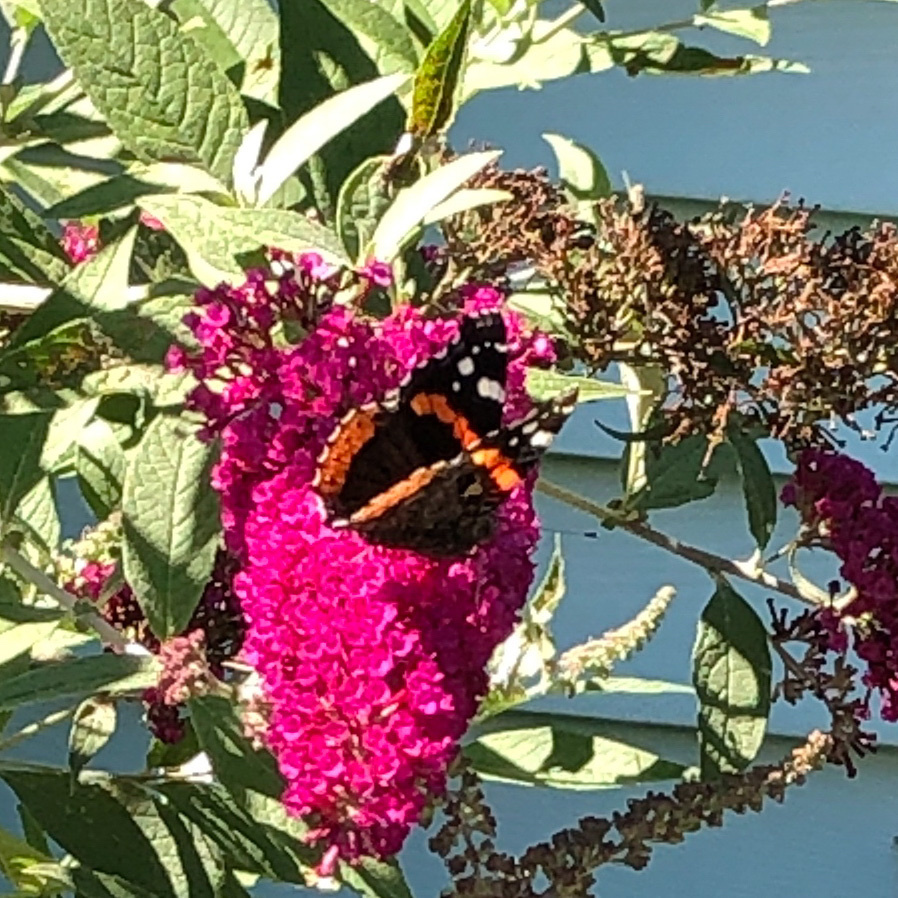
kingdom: Animalia
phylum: Arthropoda
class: Insecta
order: Lepidoptera
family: Nymphalidae
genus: Vanessa
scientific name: Vanessa atalanta
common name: Red admiral
